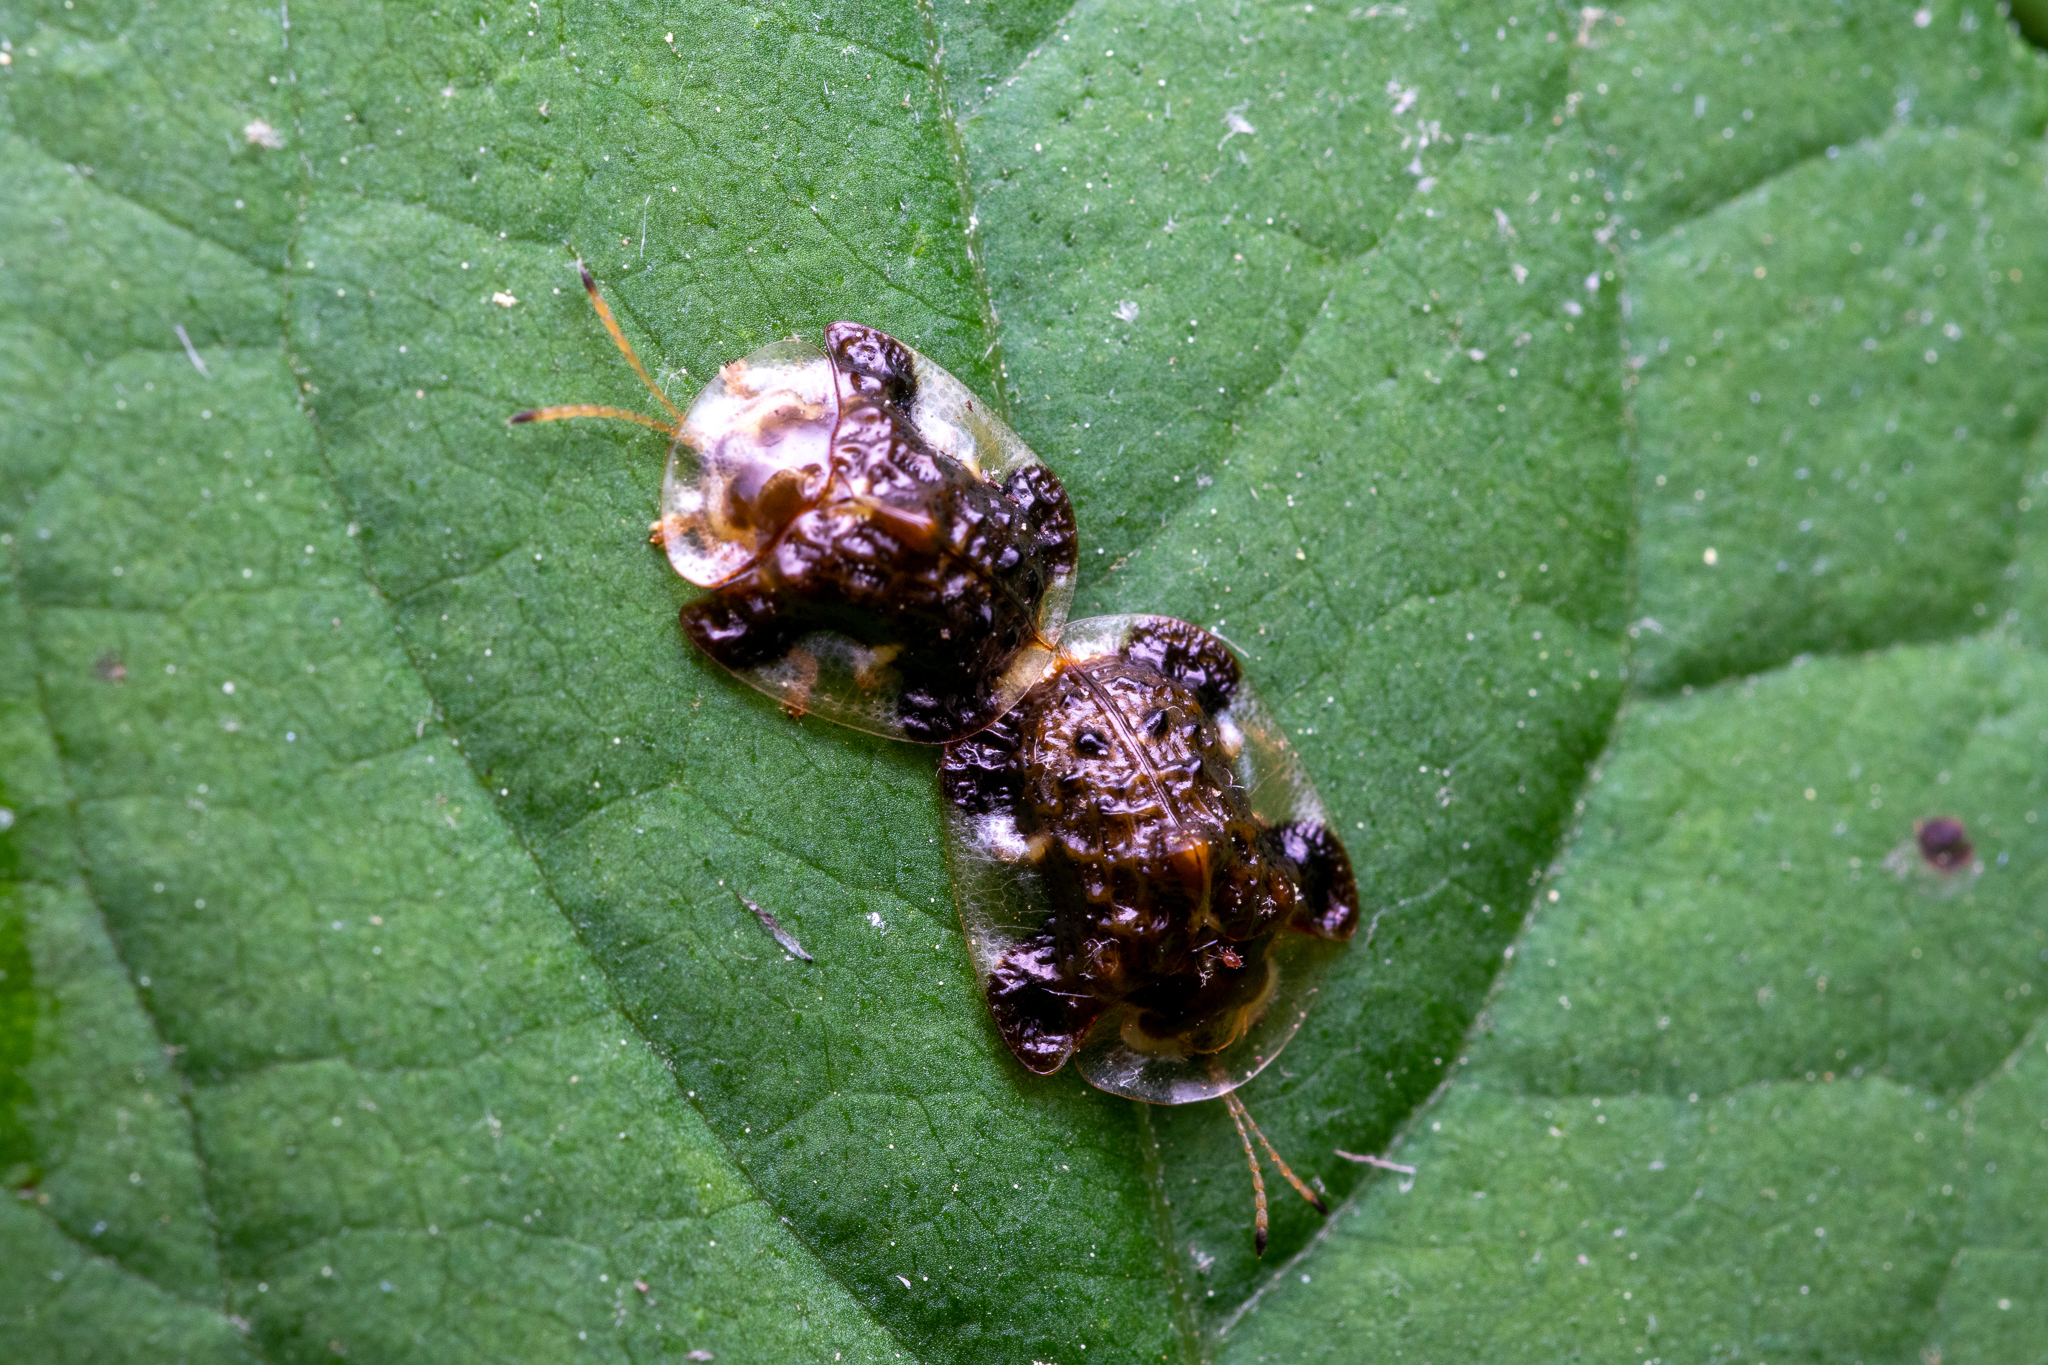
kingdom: Animalia
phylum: Arthropoda
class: Insecta
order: Coleoptera
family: Chrysomelidae
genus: Helocassis
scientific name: Helocassis clavata
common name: Clavate tortoise beetle
